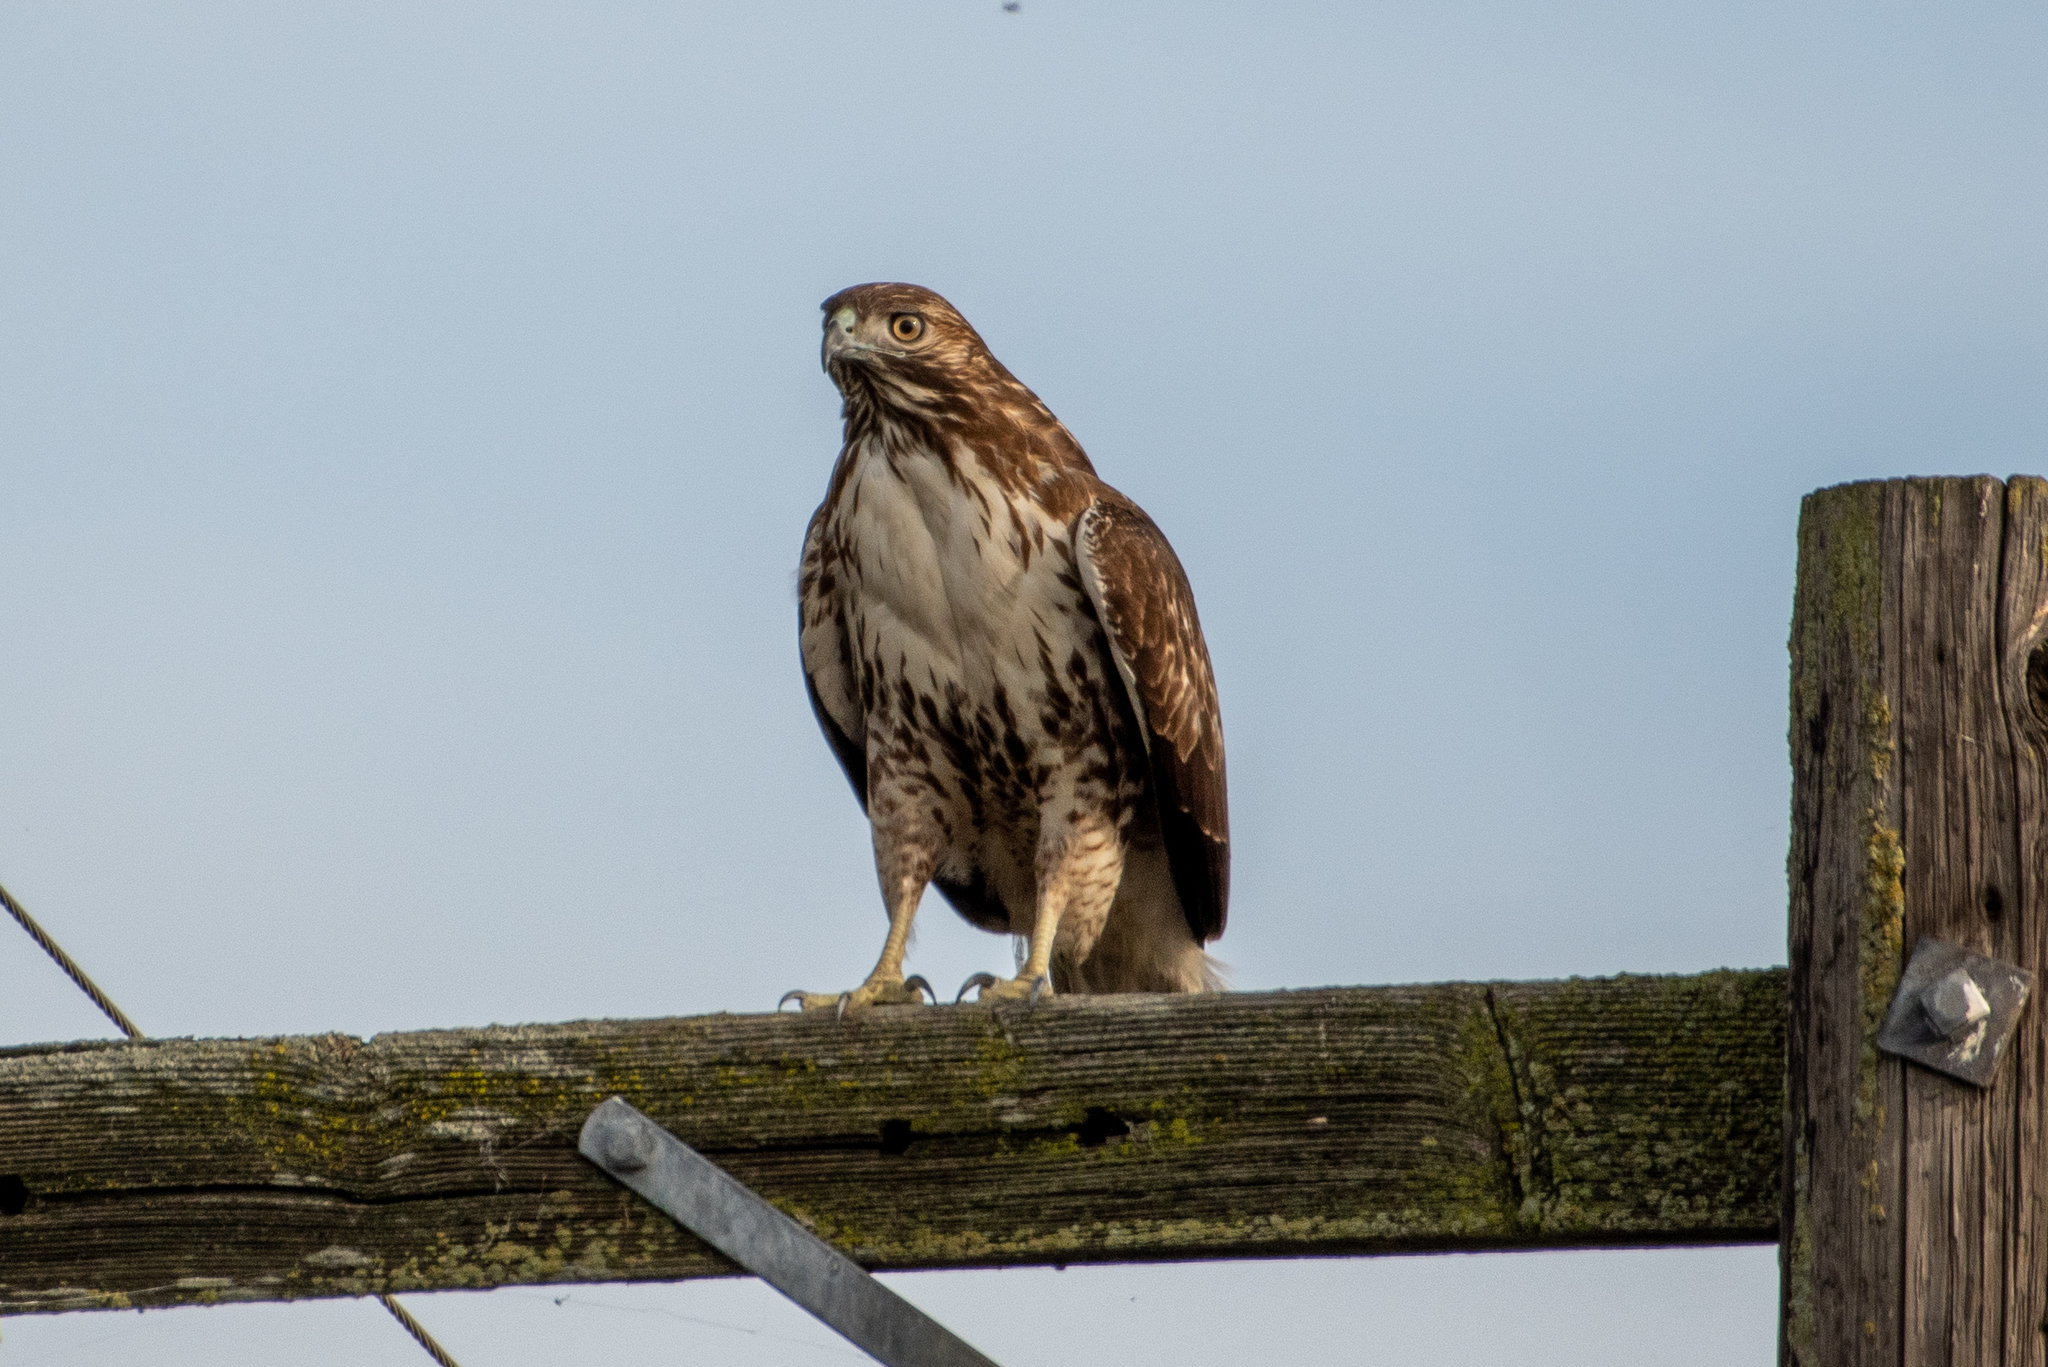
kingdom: Animalia
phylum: Chordata
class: Aves
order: Accipitriformes
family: Accipitridae
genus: Buteo
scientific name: Buteo jamaicensis
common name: Red-tailed hawk
